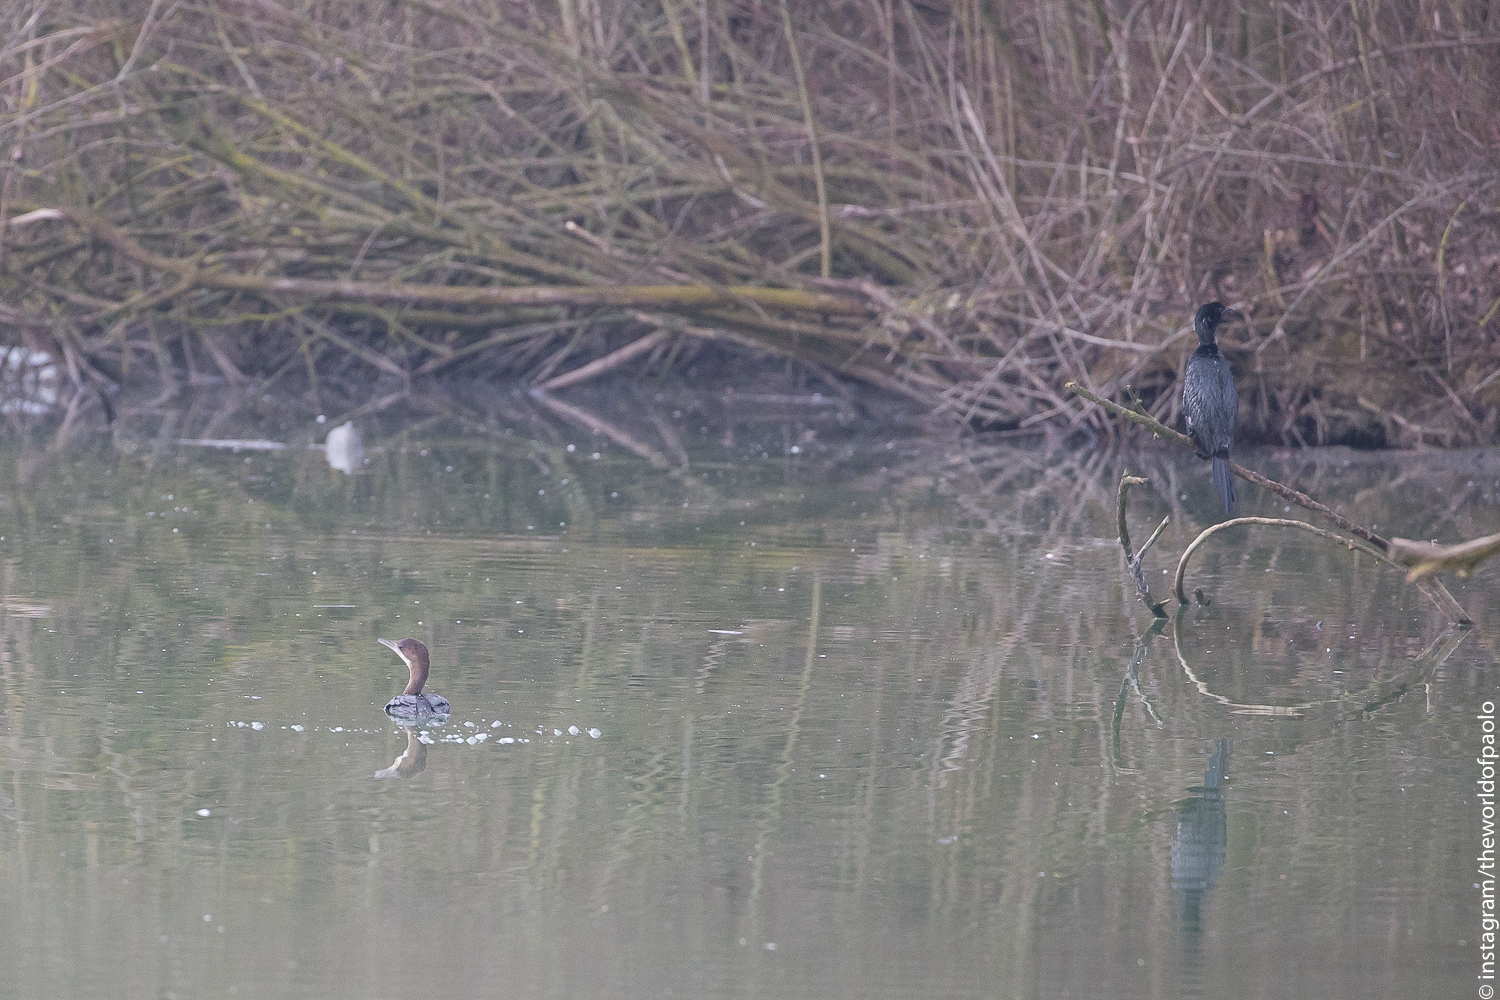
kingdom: Animalia
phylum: Chordata
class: Aves
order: Suliformes
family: Phalacrocoracidae
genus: Microcarbo
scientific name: Microcarbo pygmaeus
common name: Pygmy cormorant
